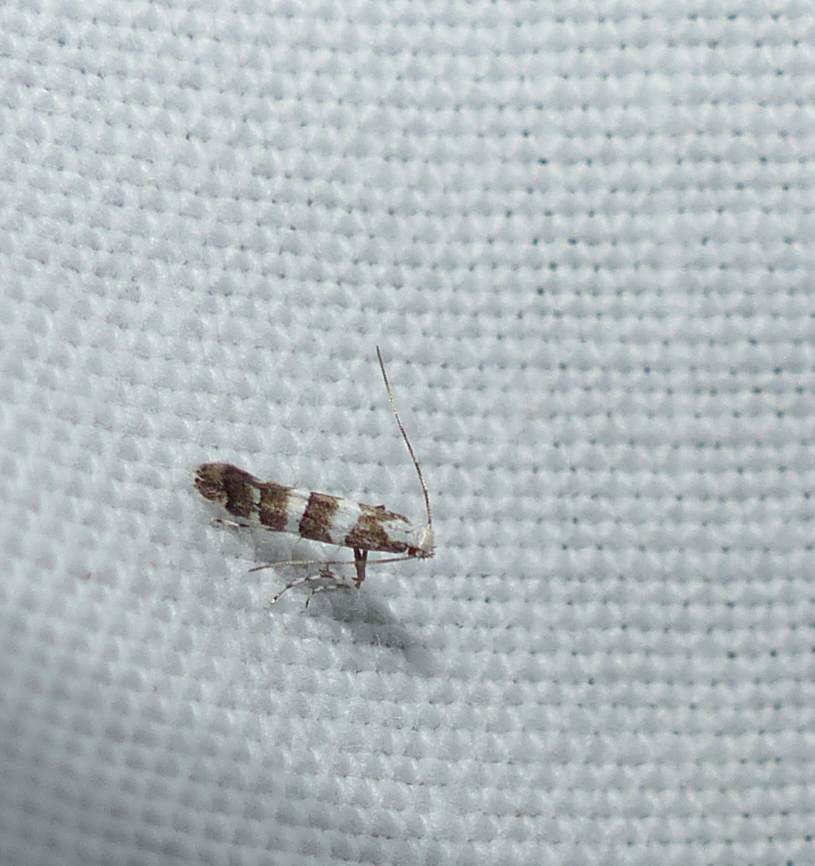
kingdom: Animalia
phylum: Arthropoda
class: Insecta
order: Lepidoptera
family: Gracillariidae
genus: Marmara
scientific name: Marmara fasciella
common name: White pine barkminer moth
